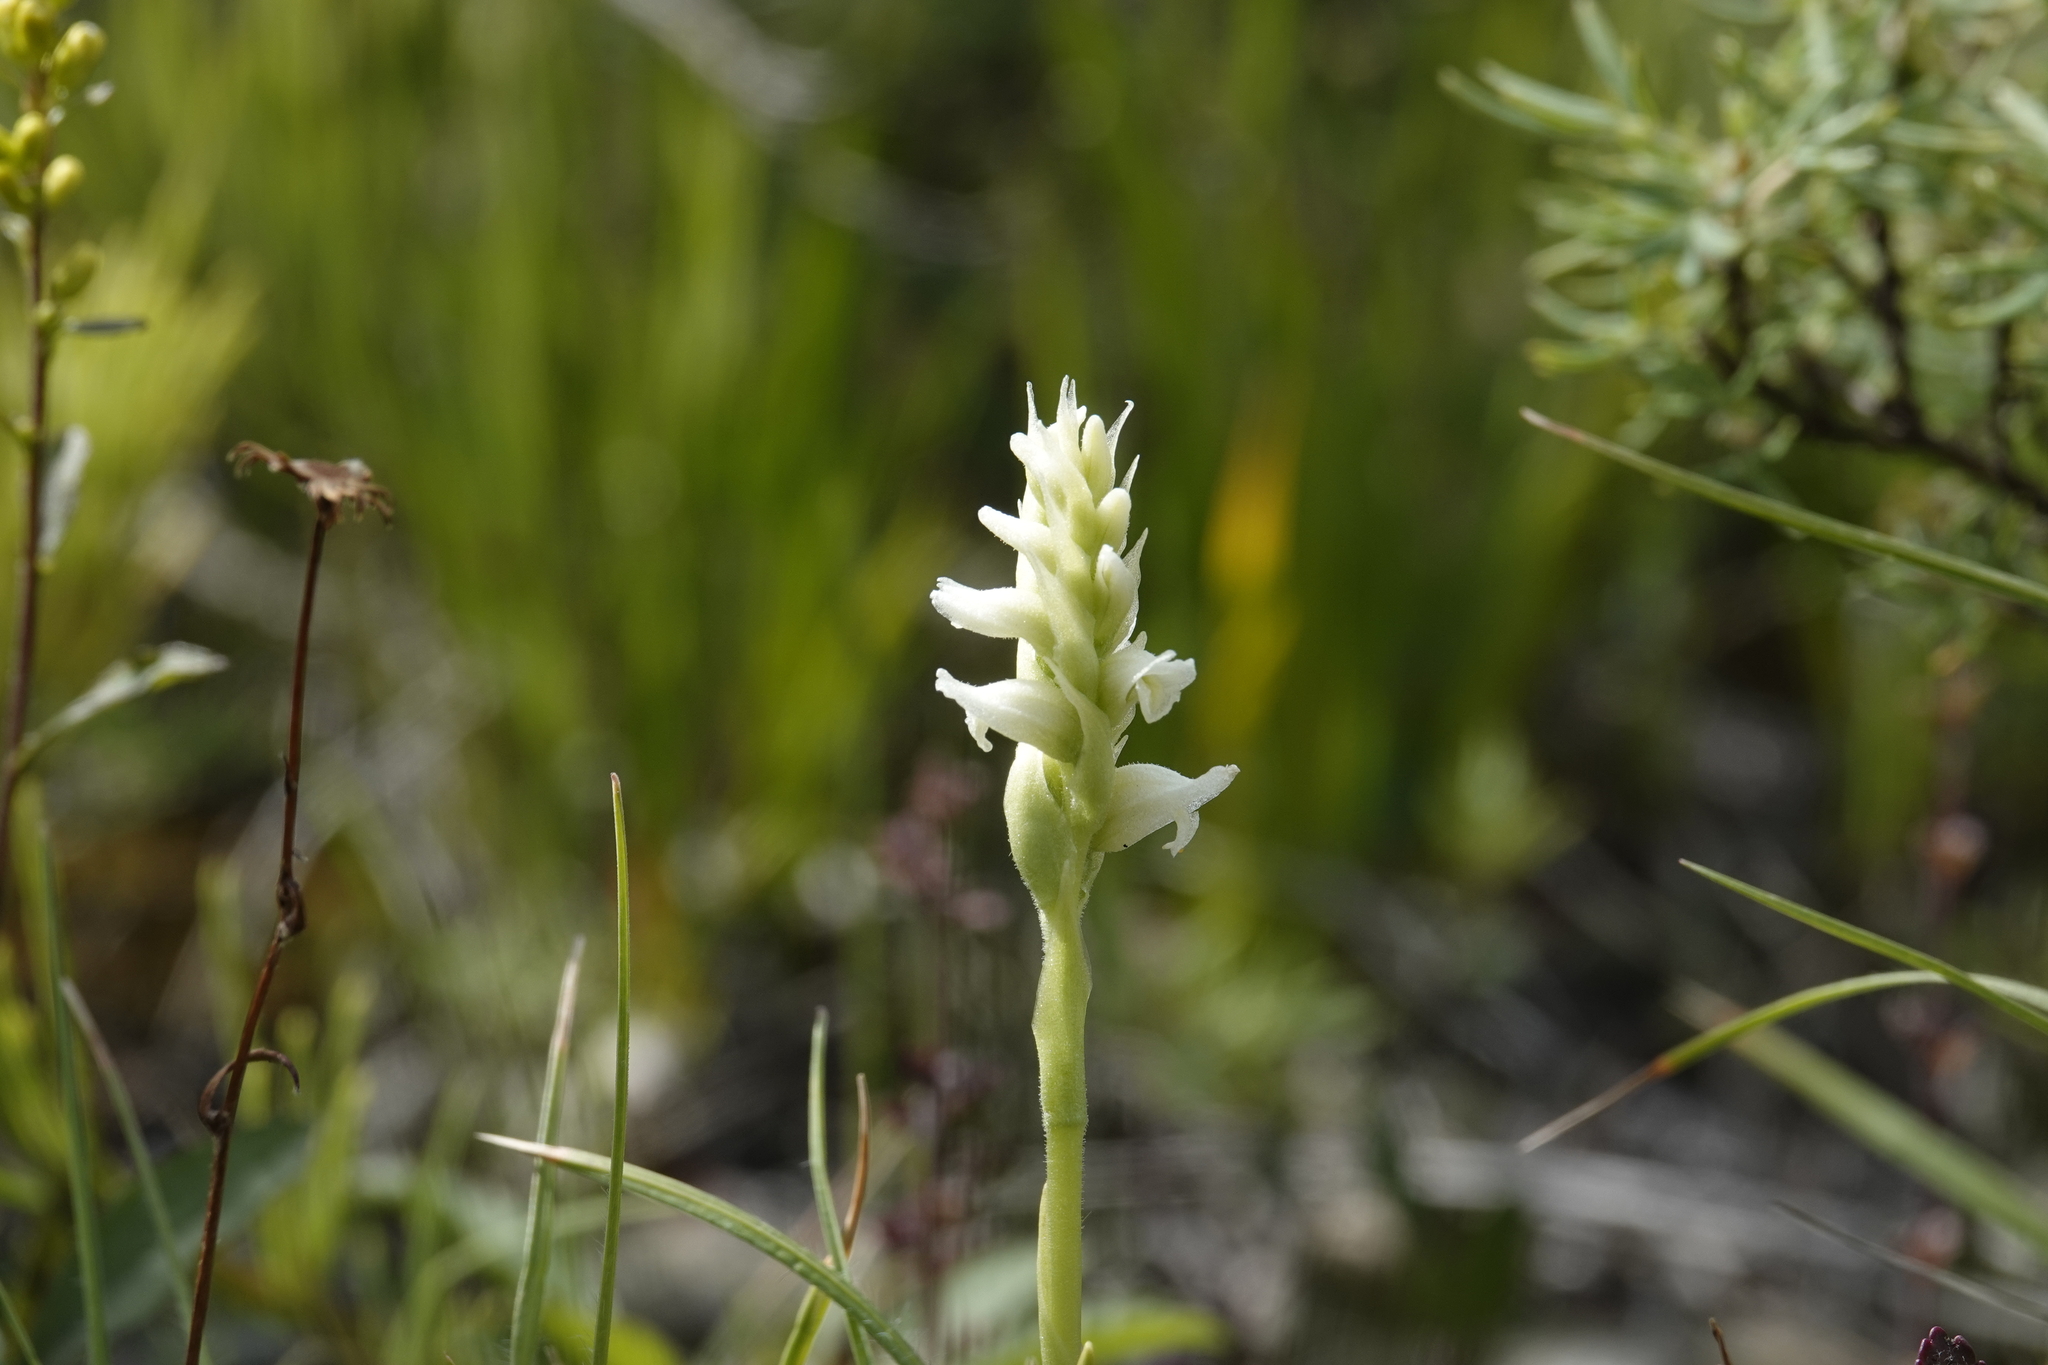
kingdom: Plantae
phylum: Tracheophyta
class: Liliopsida
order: Asparagales
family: Orchidaceae
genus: Spiranthes
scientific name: Spiranthes romanzoffiana
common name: Irish lady's-tresses
